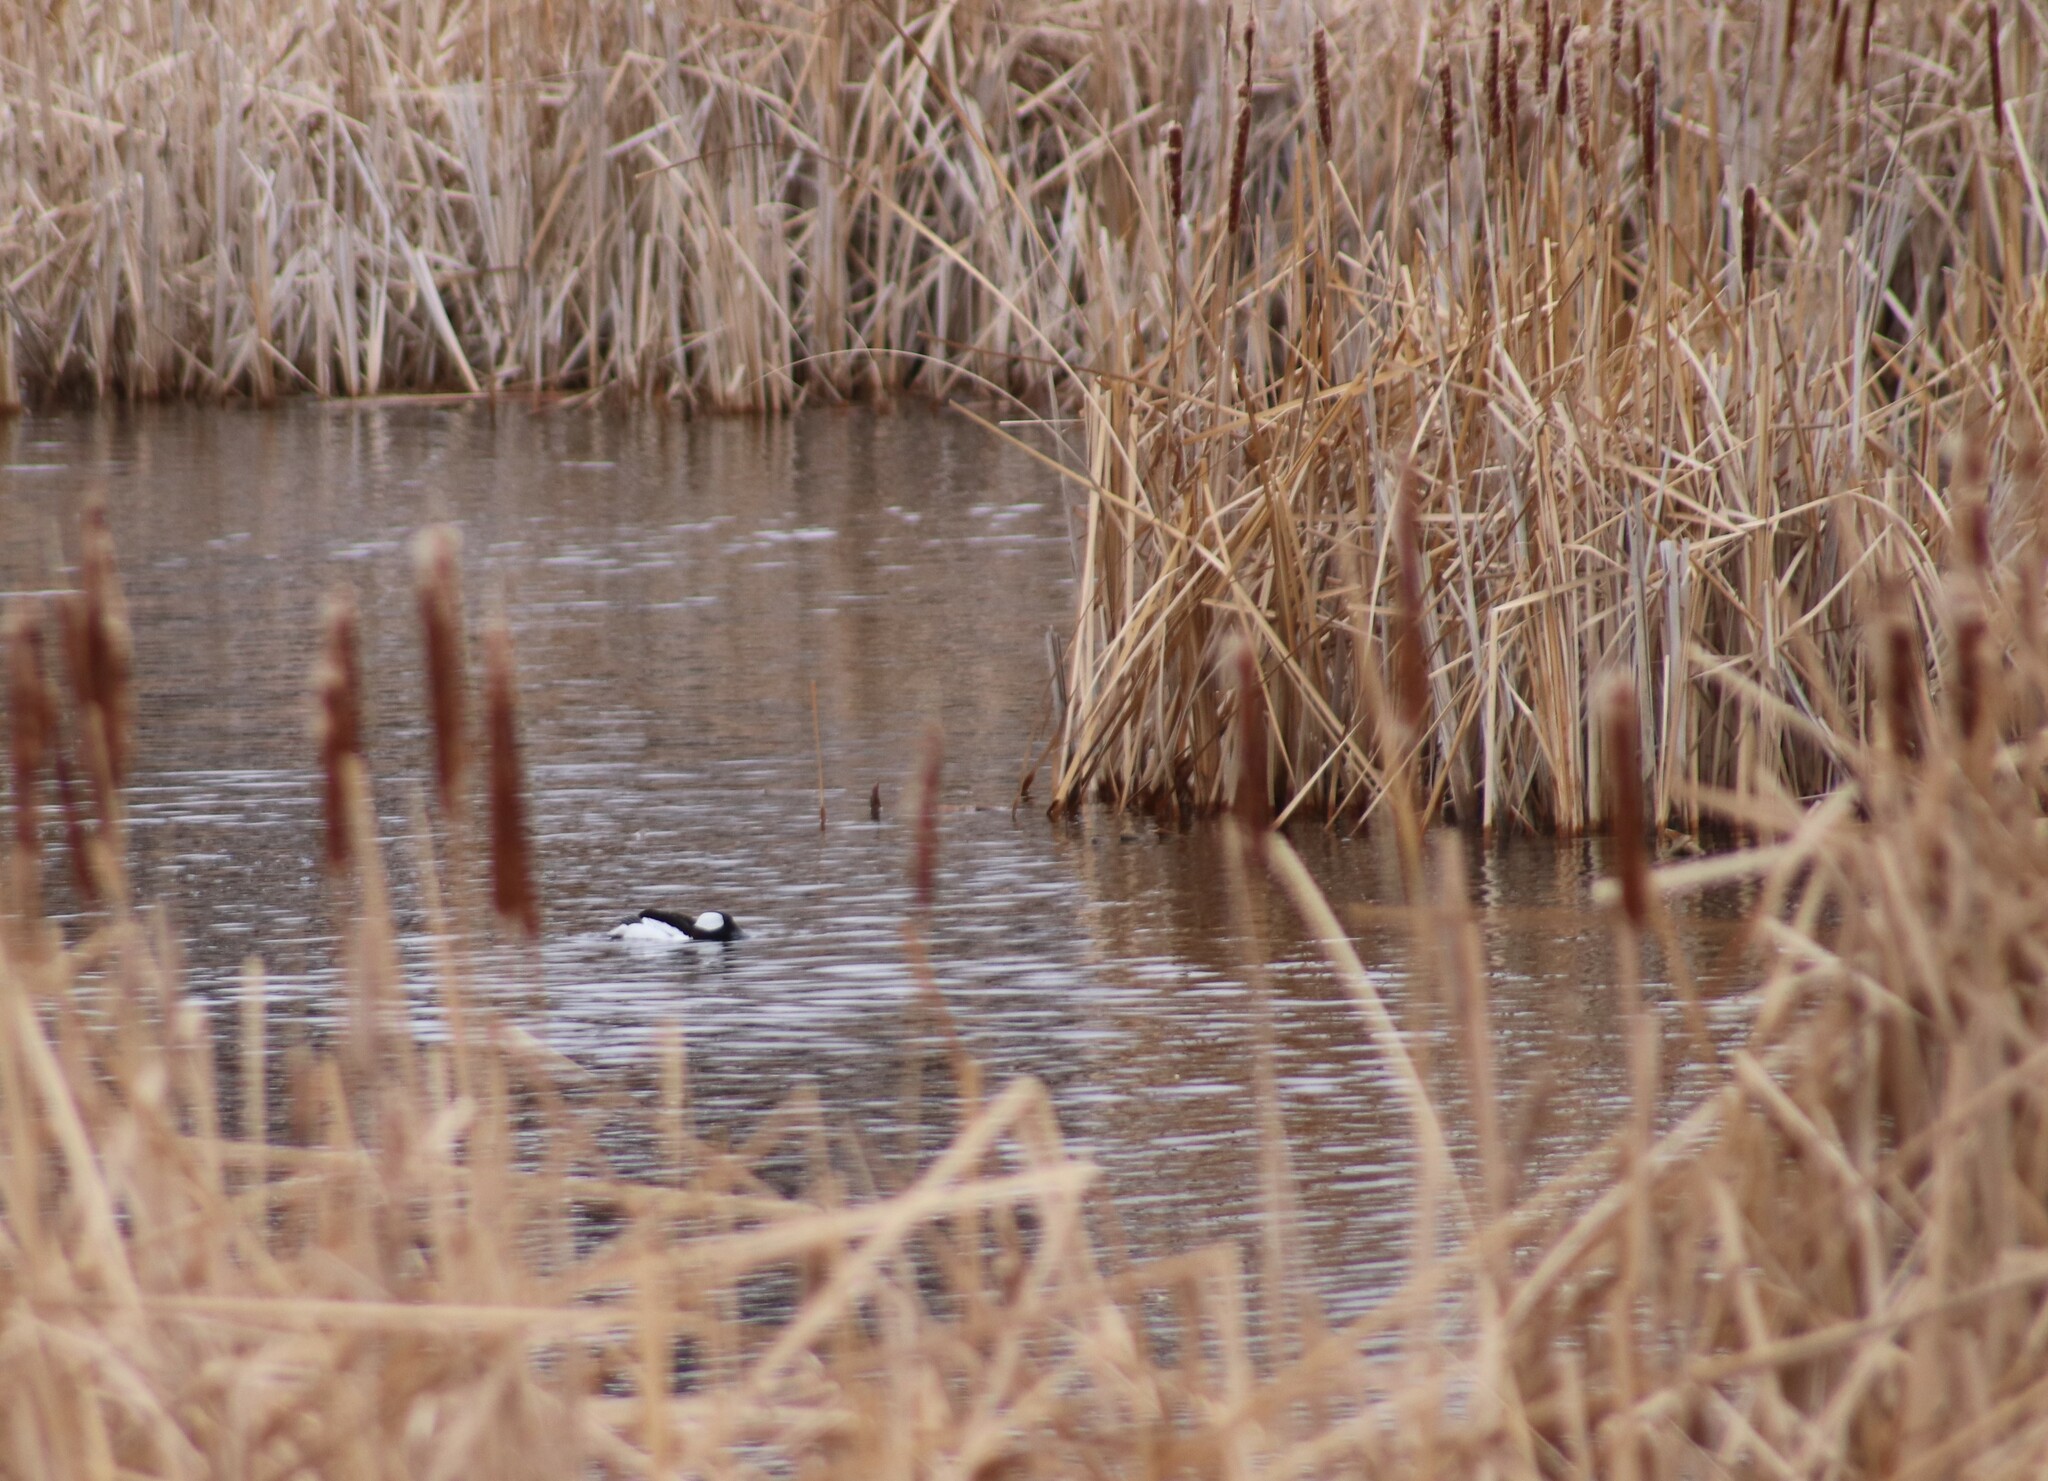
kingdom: Animalia
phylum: Chordata
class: Aves
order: Anseriformes
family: Anatidae
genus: Bucephala
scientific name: Bucephala albeola
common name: Bufflehead
